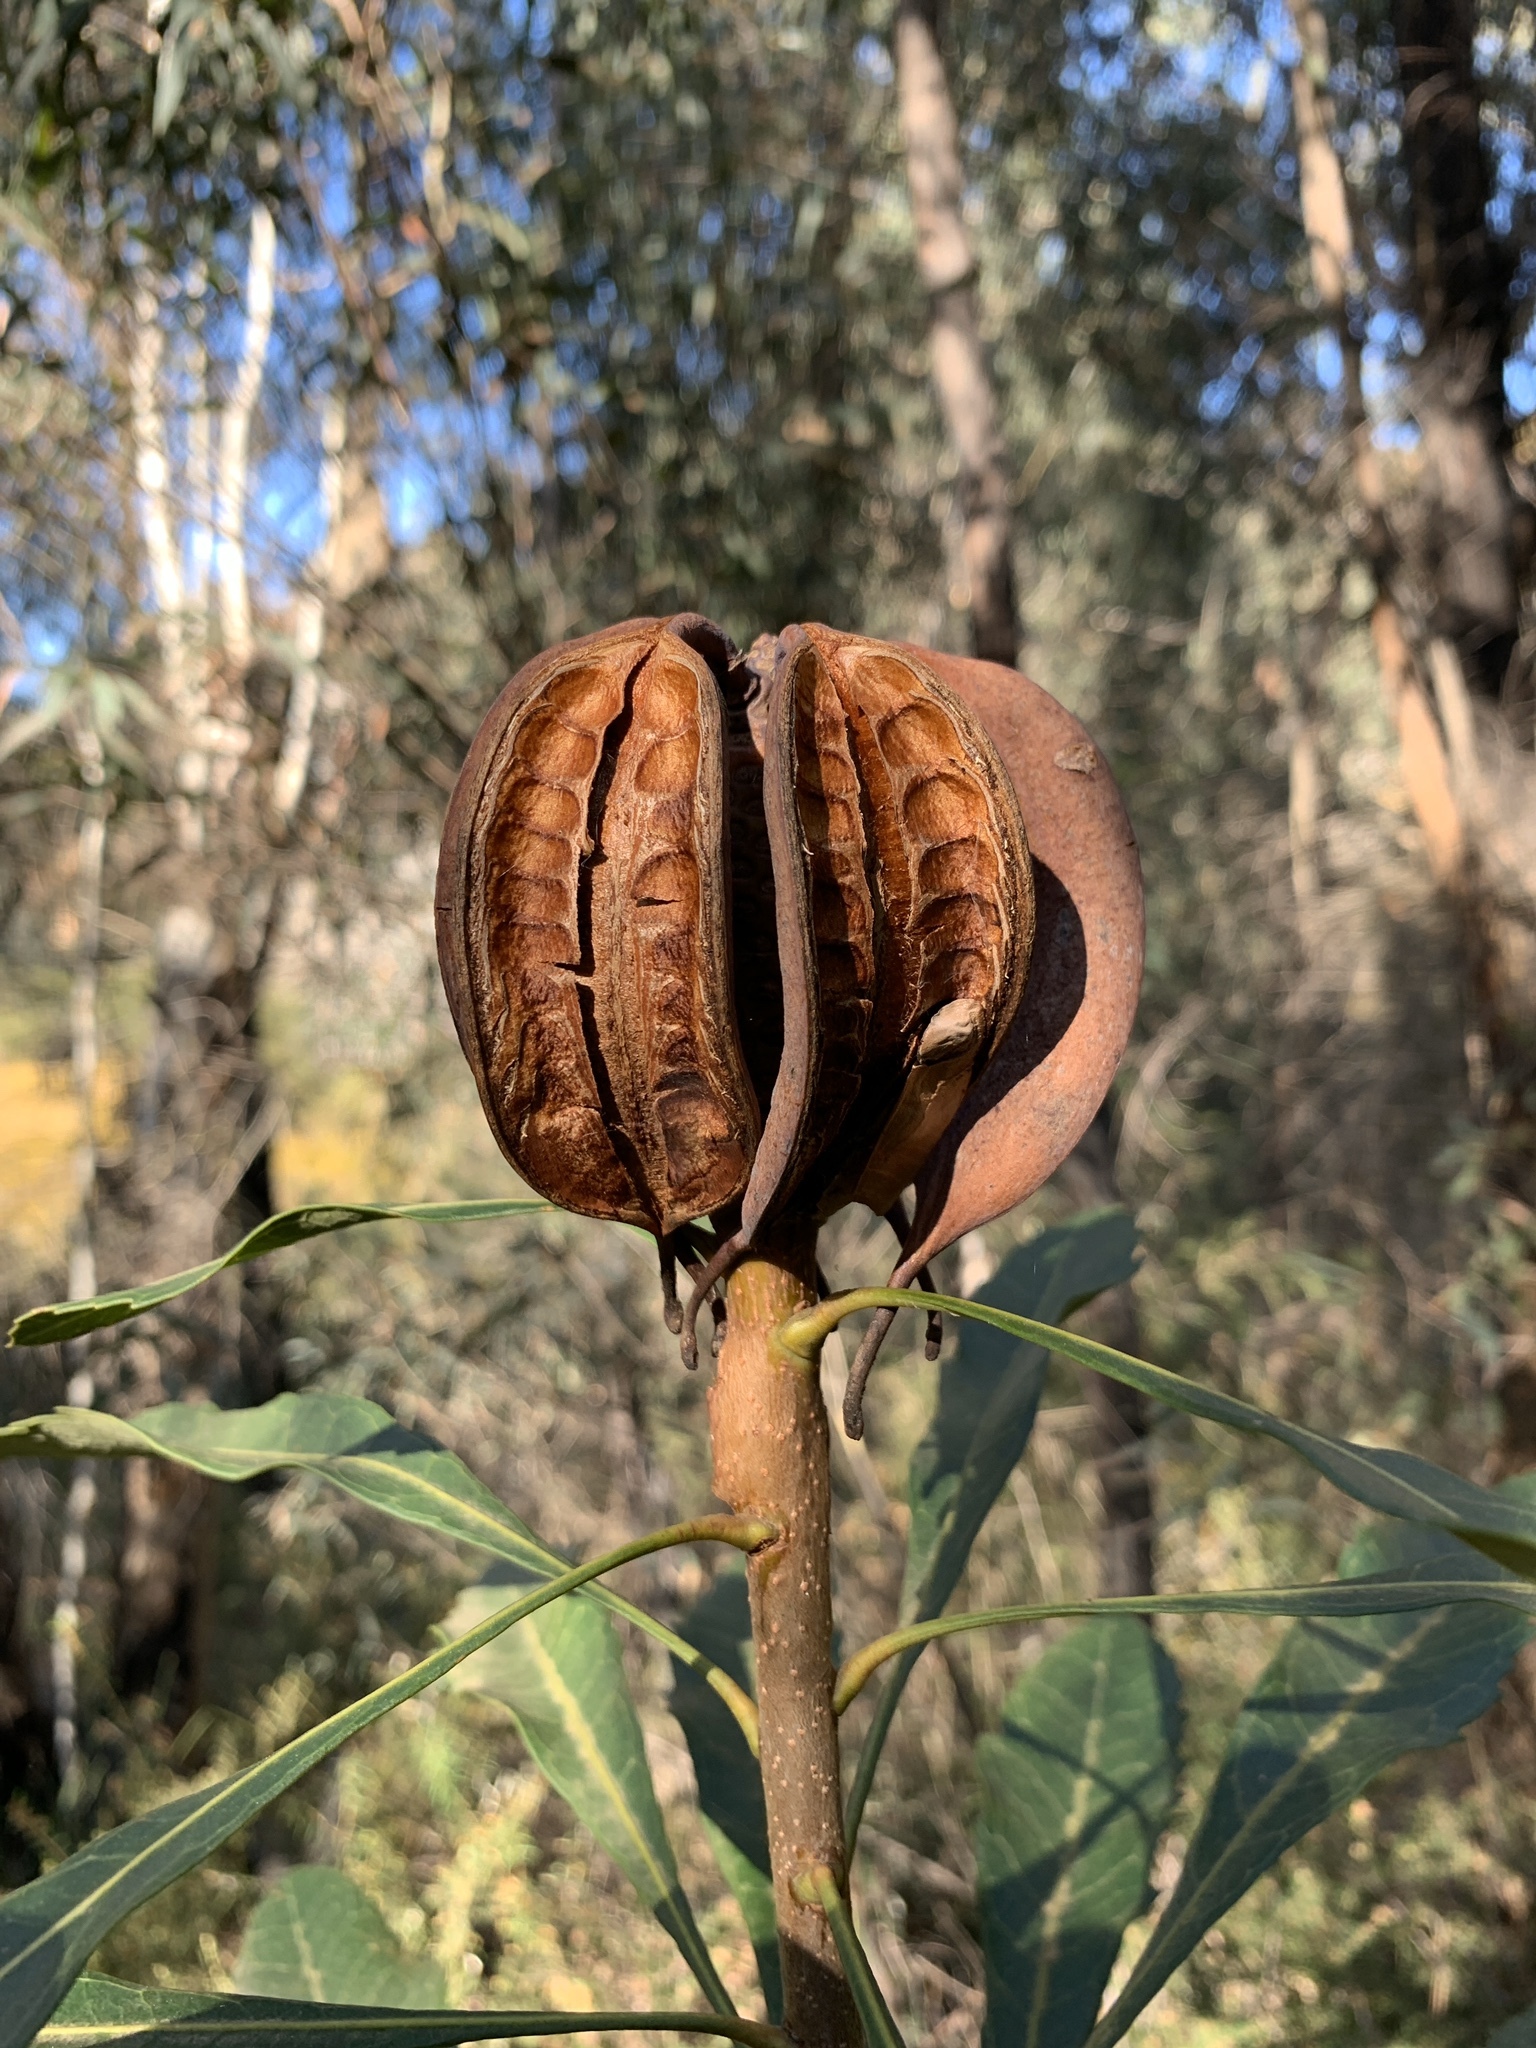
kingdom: Plantae
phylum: Tracheophyta
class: Magnoliopsida
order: Proteales
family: Proteaceae
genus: Telopea
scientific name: Telopea speciosissima
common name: New south wales waratah
